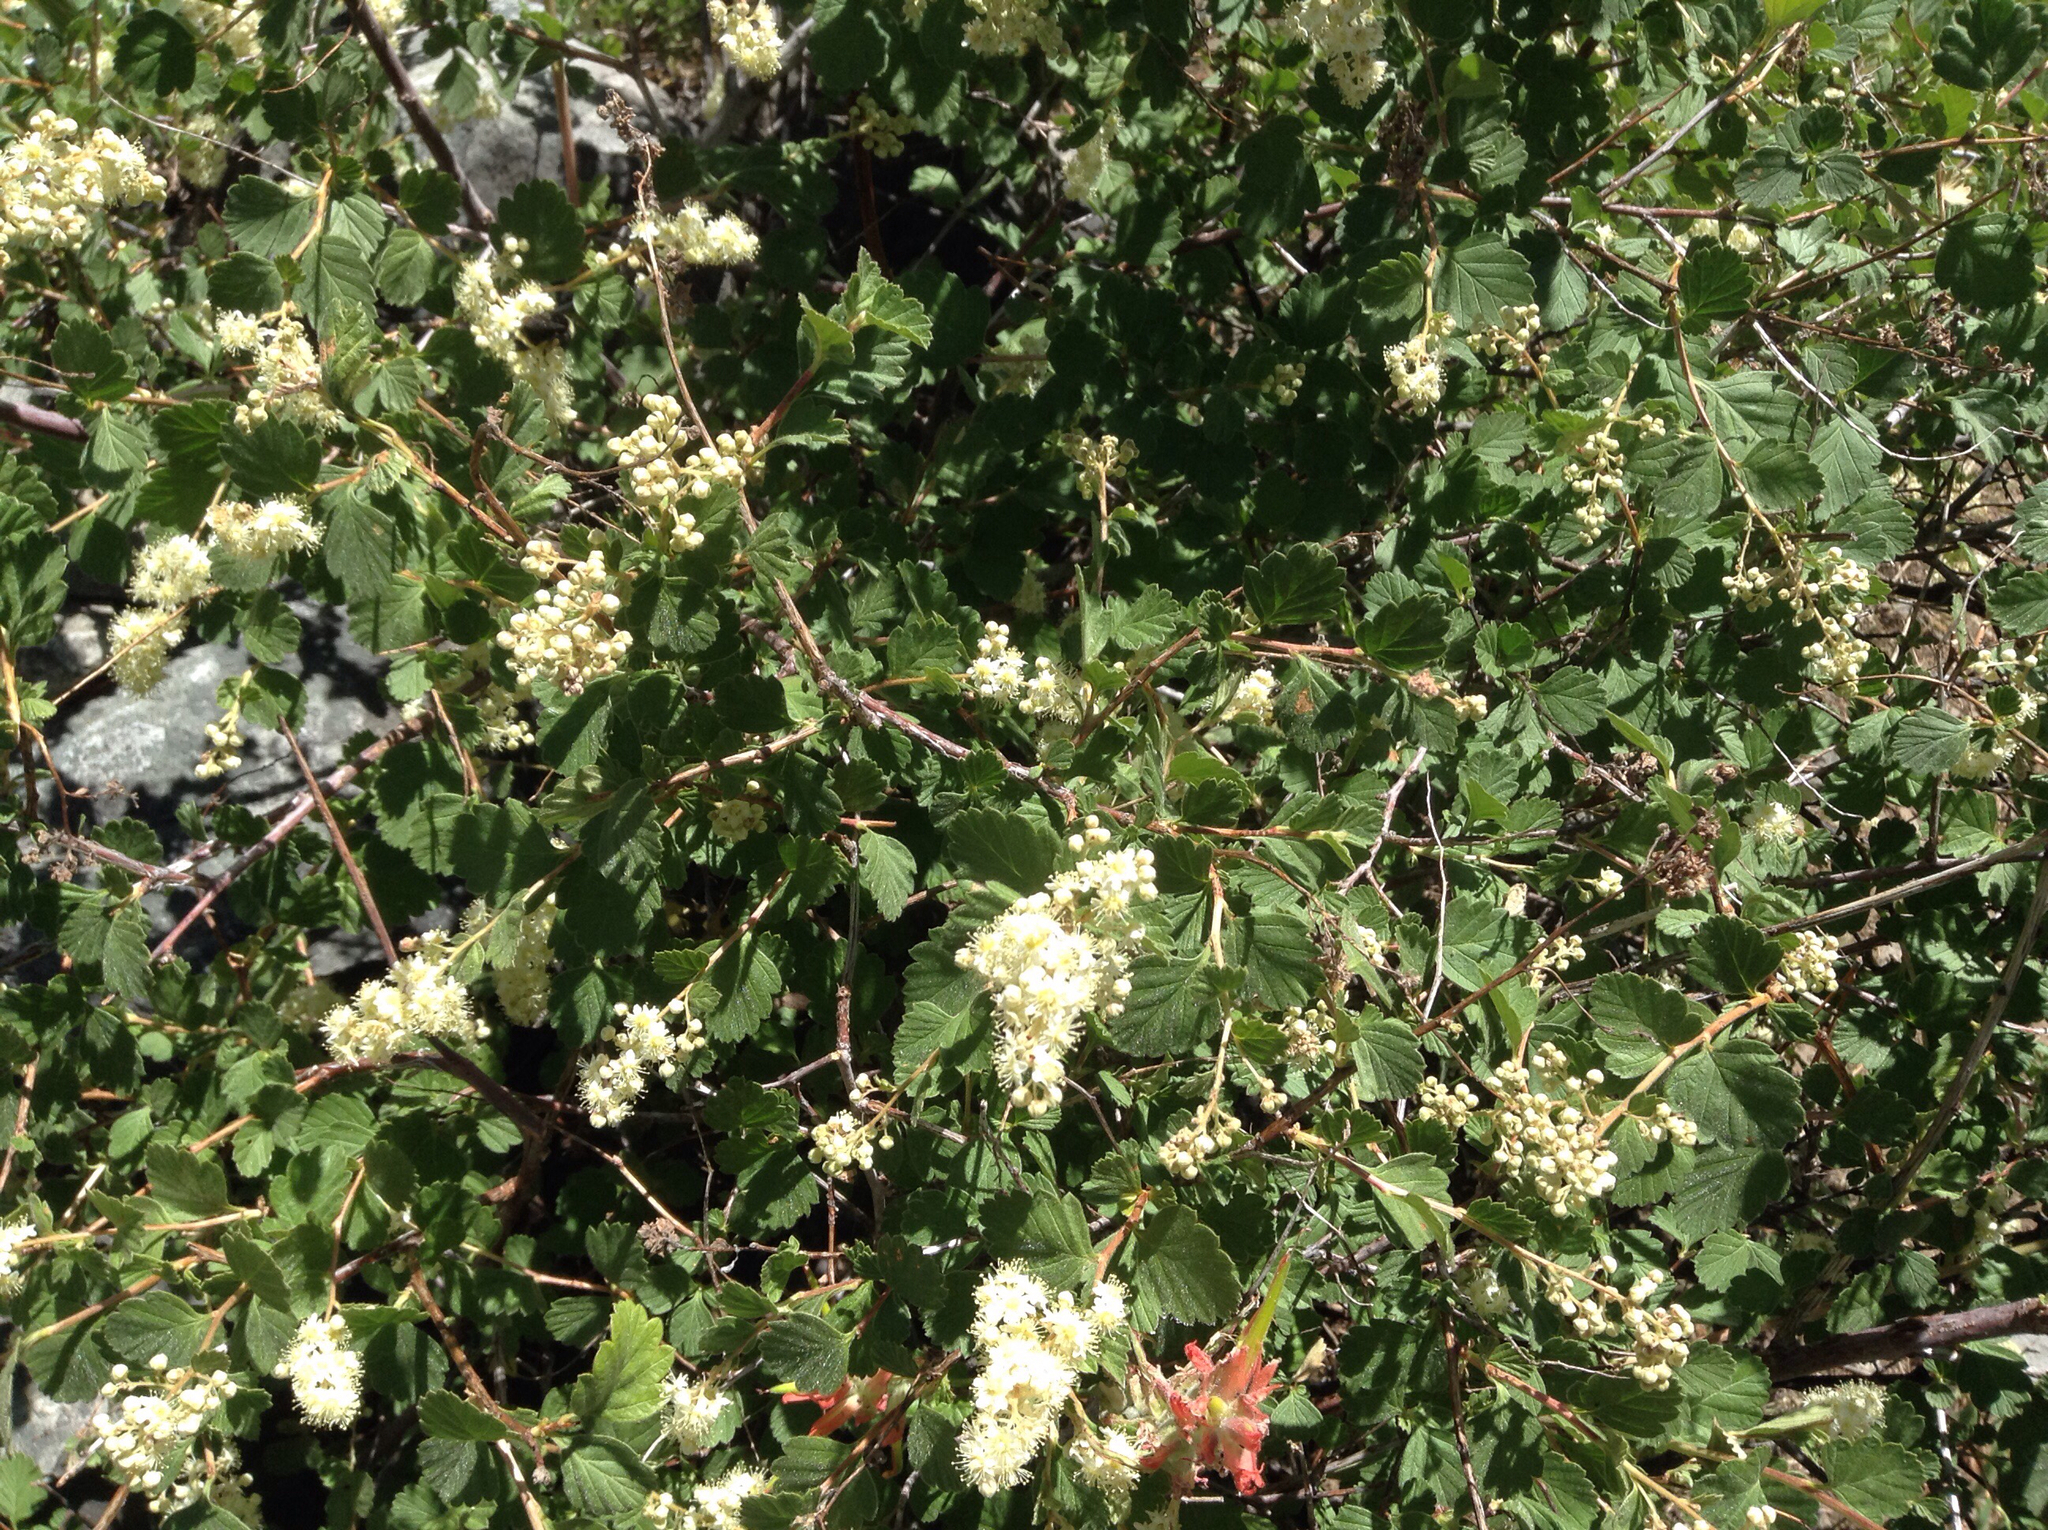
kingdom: Plantae
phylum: Tracheophyta
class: Magnoliopsida
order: Rosales
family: Rosaceae
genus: Holodiscus
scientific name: Holodiscus discolor
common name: Oceanspray
